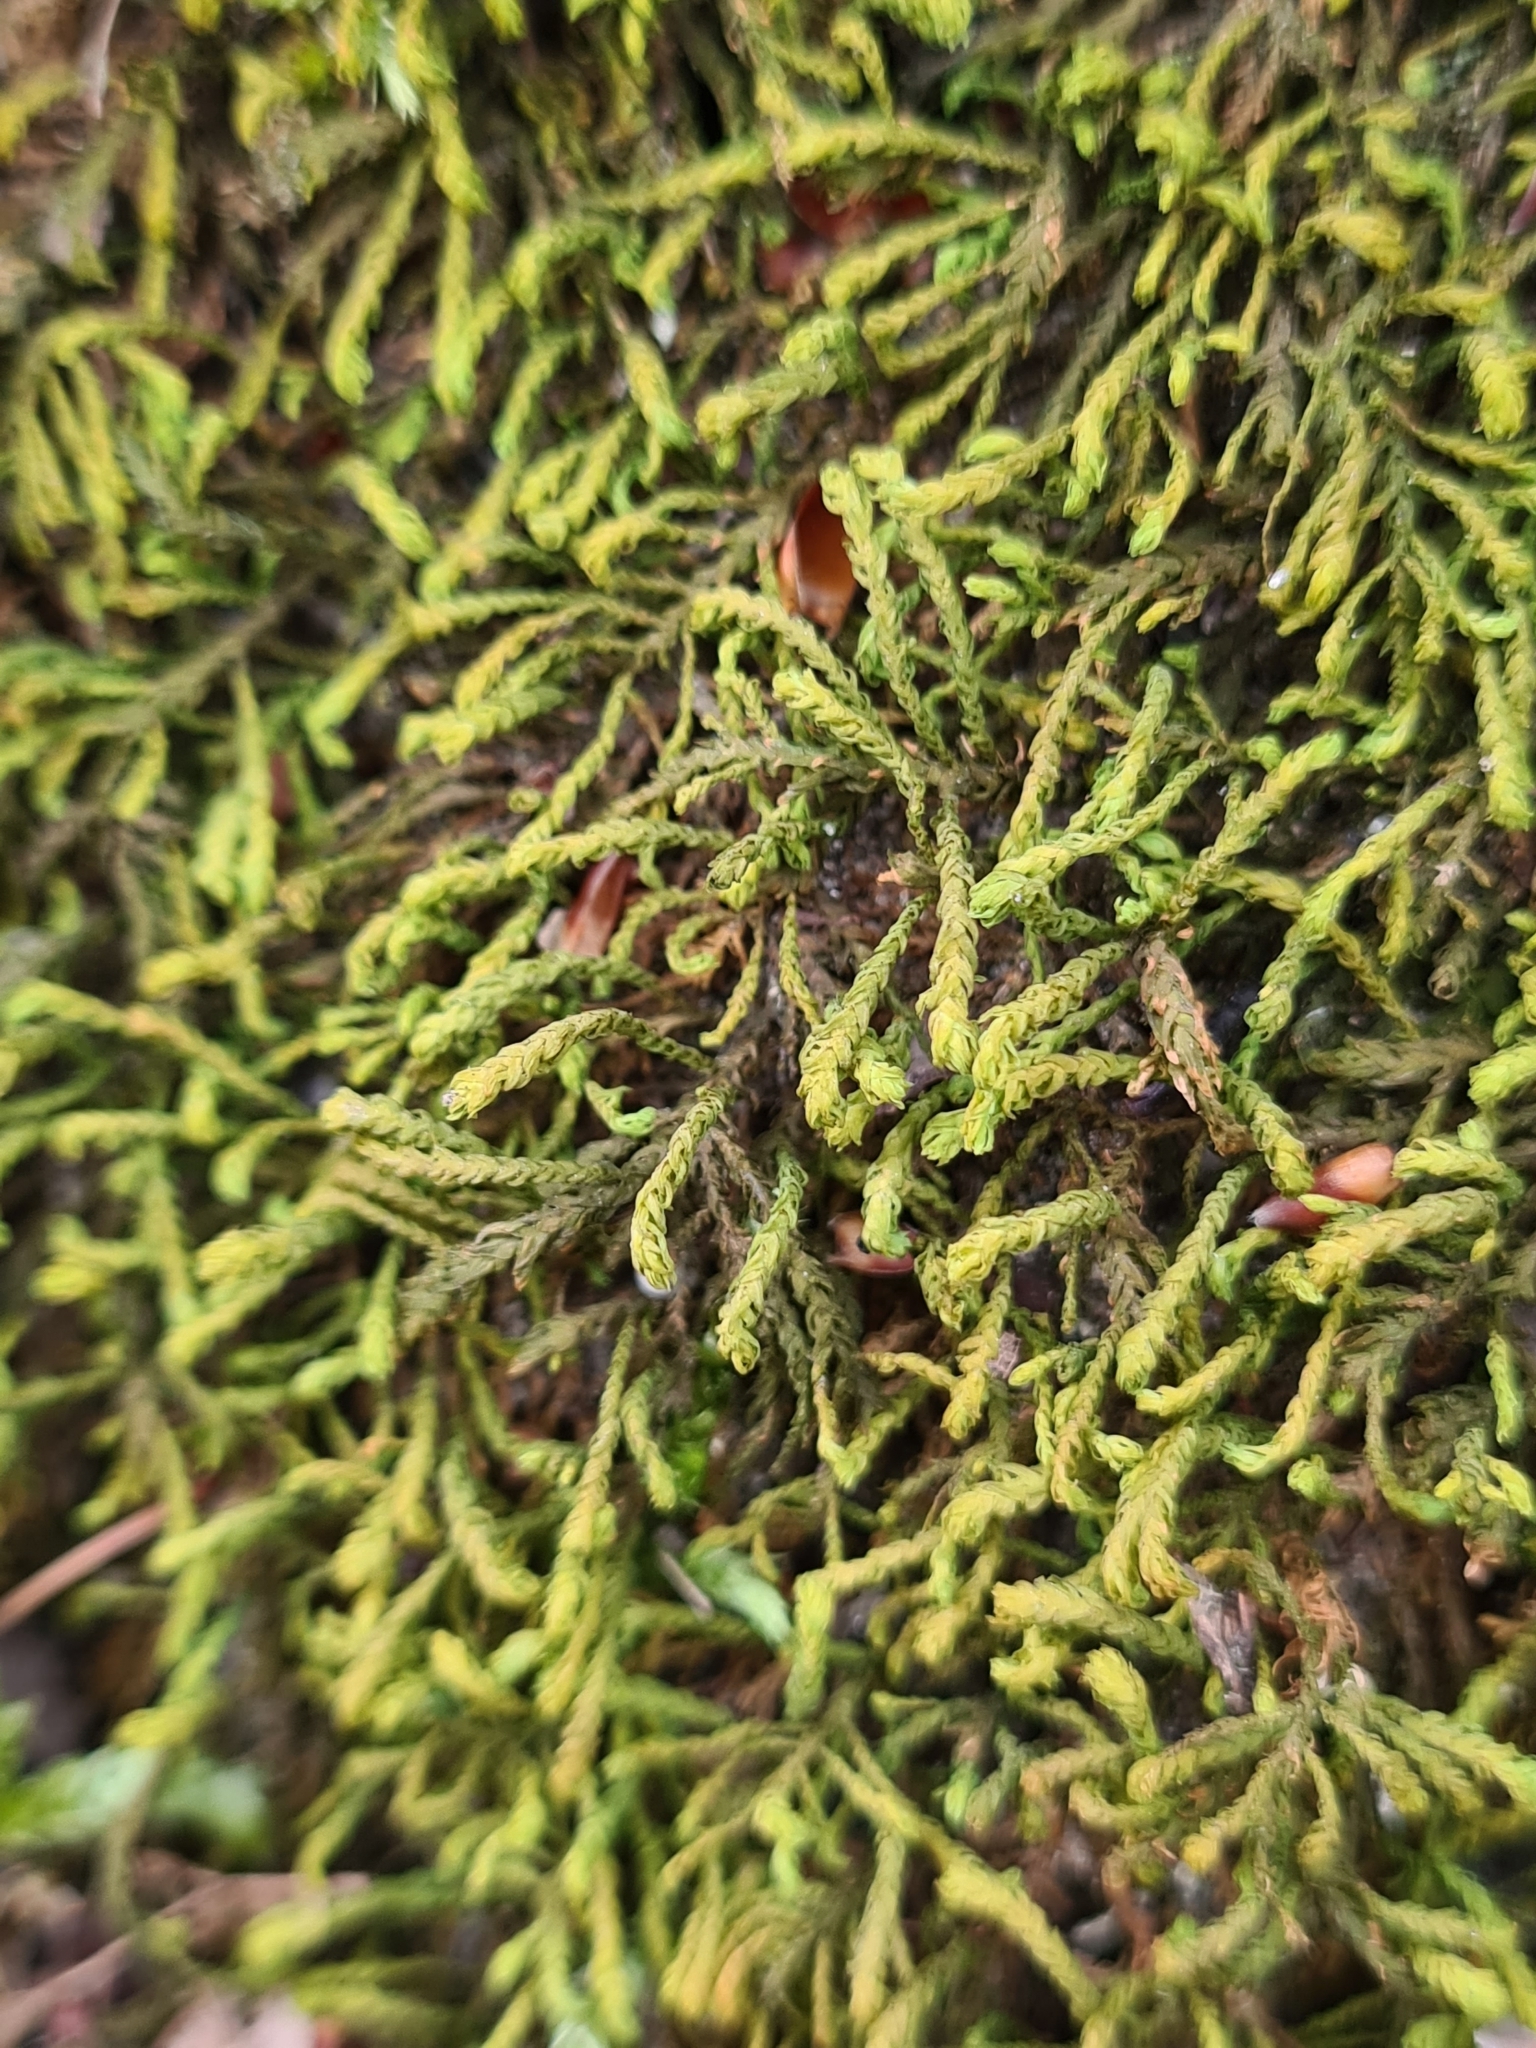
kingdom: Plantae
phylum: Bryophyta
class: Bryopsida
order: Hypnales
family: Neckeraceae
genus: Pseudanomodon
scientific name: Pseudanomodon attenuatus
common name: Tree-skirt moss
